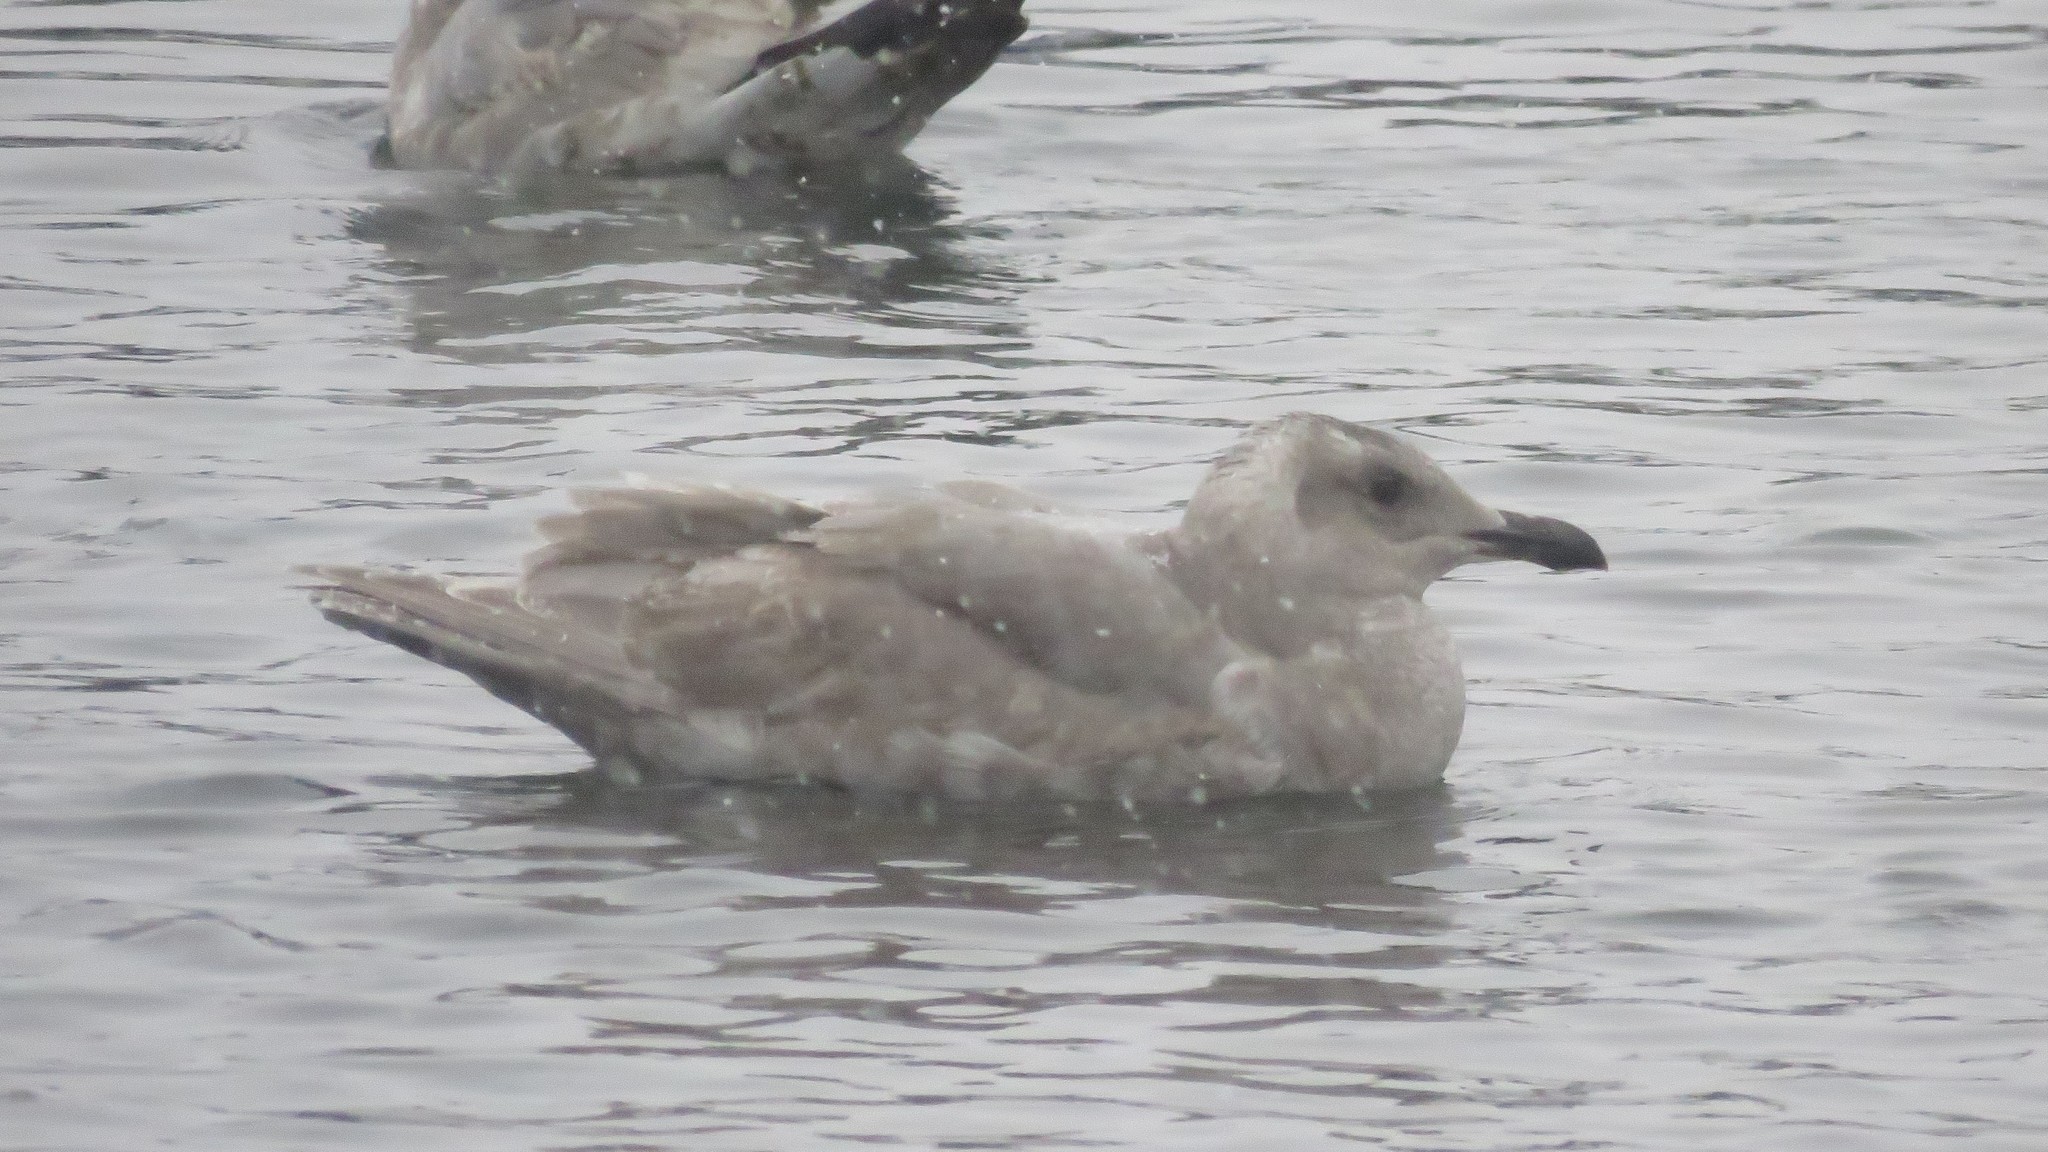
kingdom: Animalia
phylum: Chordata
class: Aves
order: Charadriiformes
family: Laridae
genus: Larus
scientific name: Larus glaucescens
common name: Glaucous-winged gull
